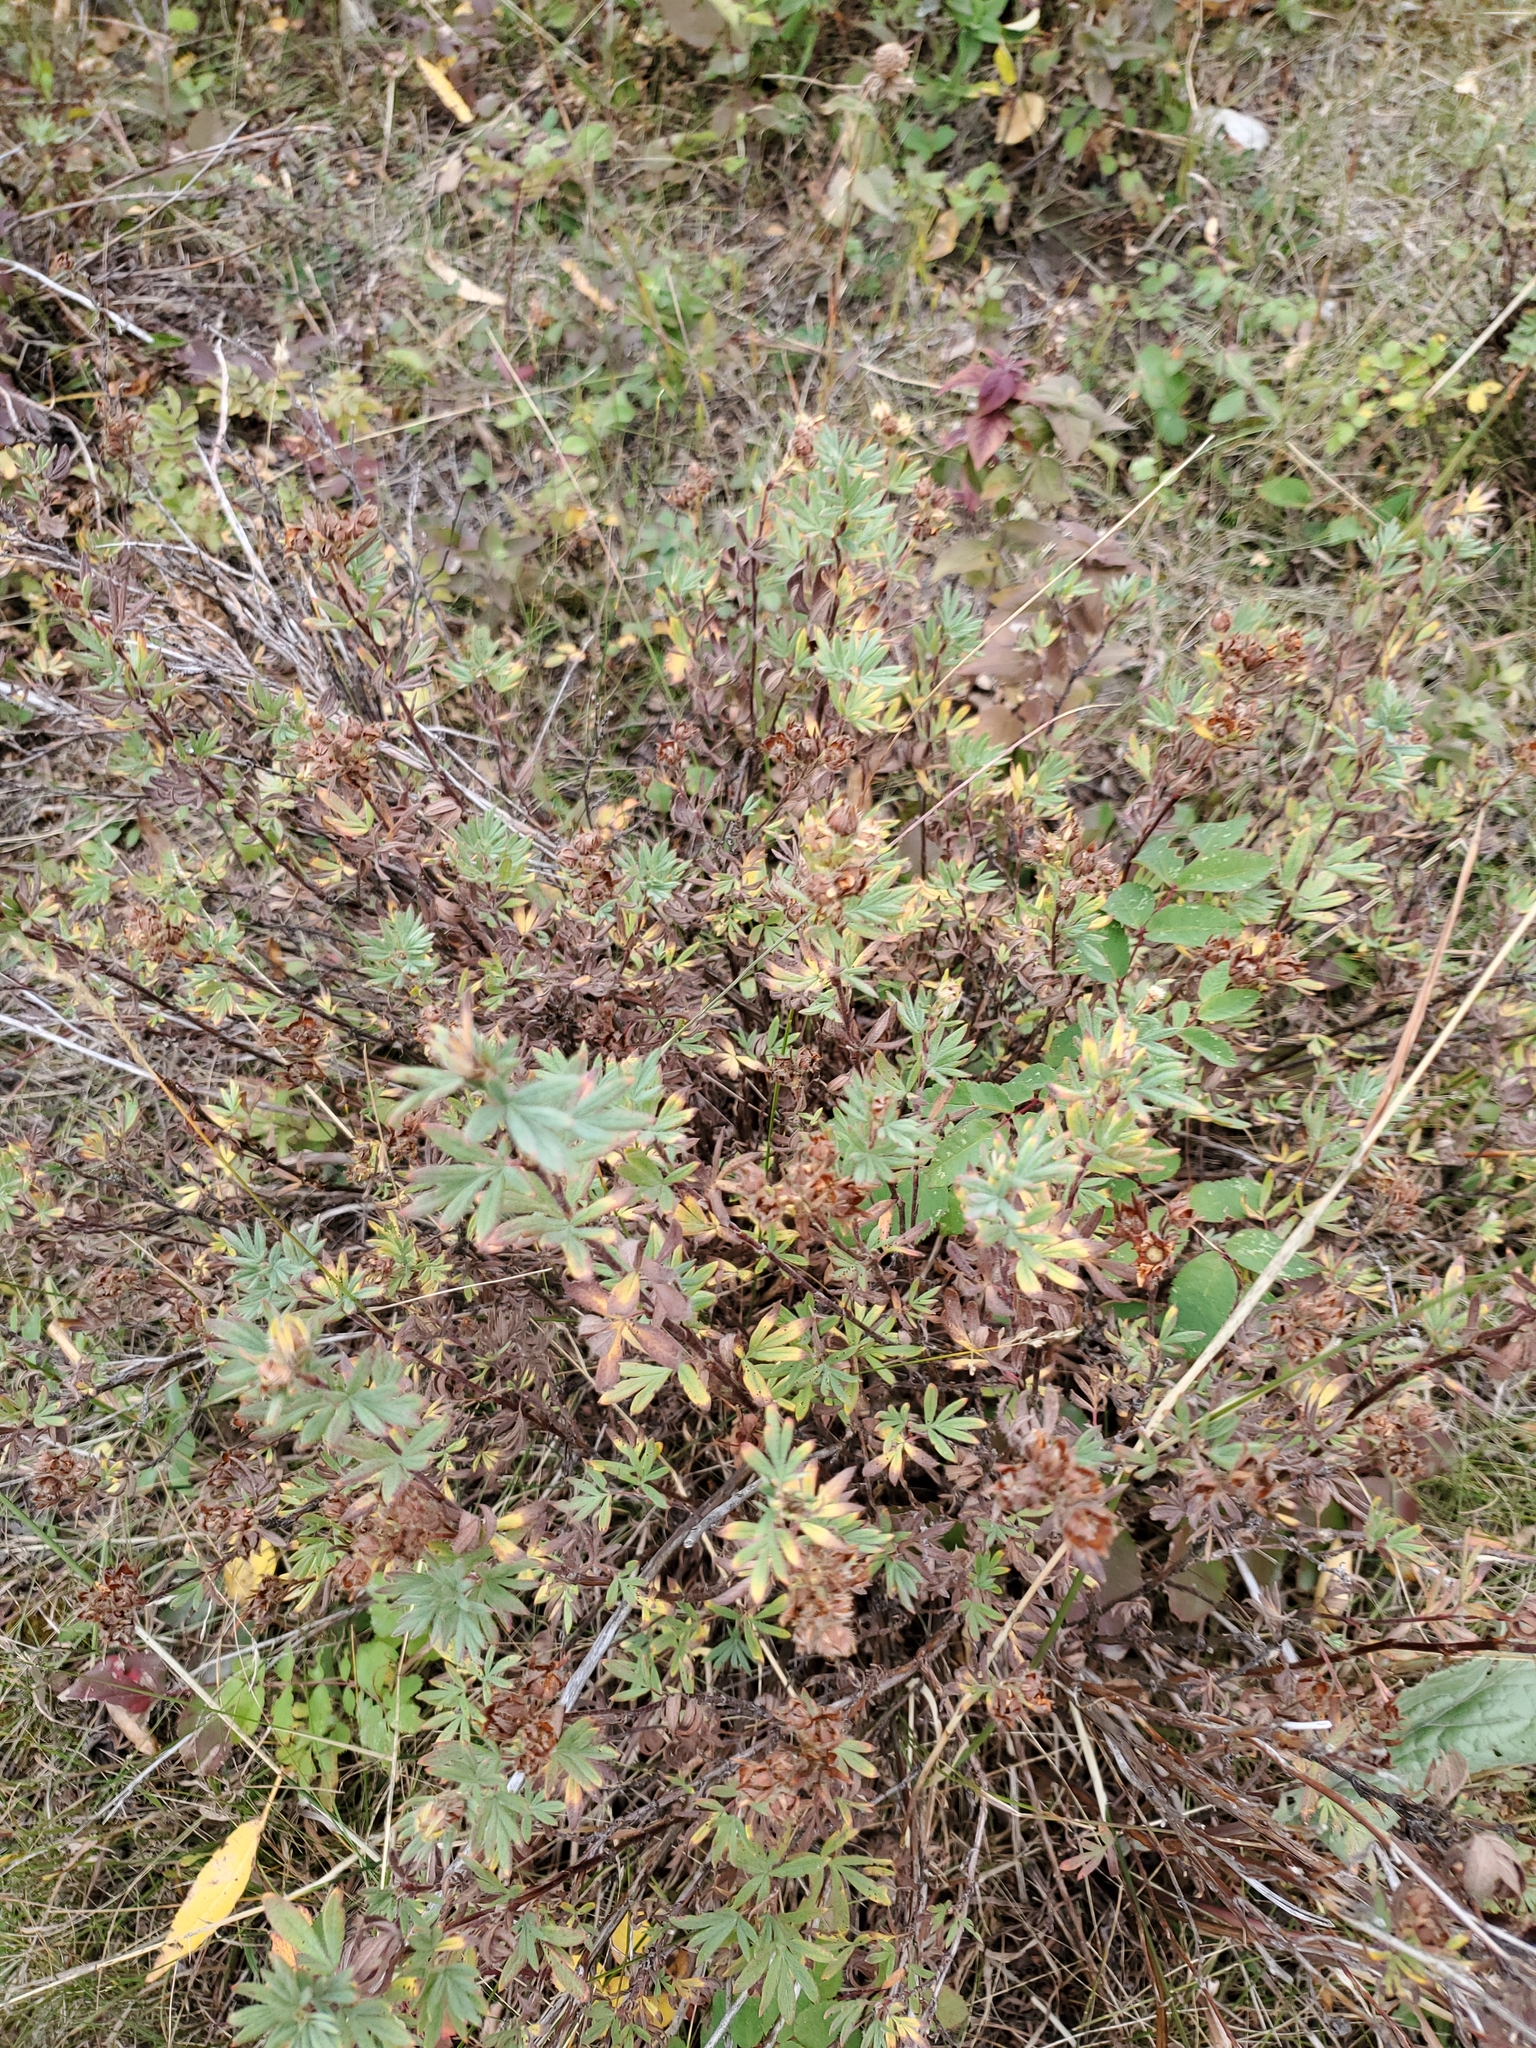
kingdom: Plantae
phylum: Tracheophyta
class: Magnoliopsida
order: Rosales
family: Rosaceae
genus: Dasiphora
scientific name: Dasiphora fruticosa
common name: Shrubby cinquefoil
